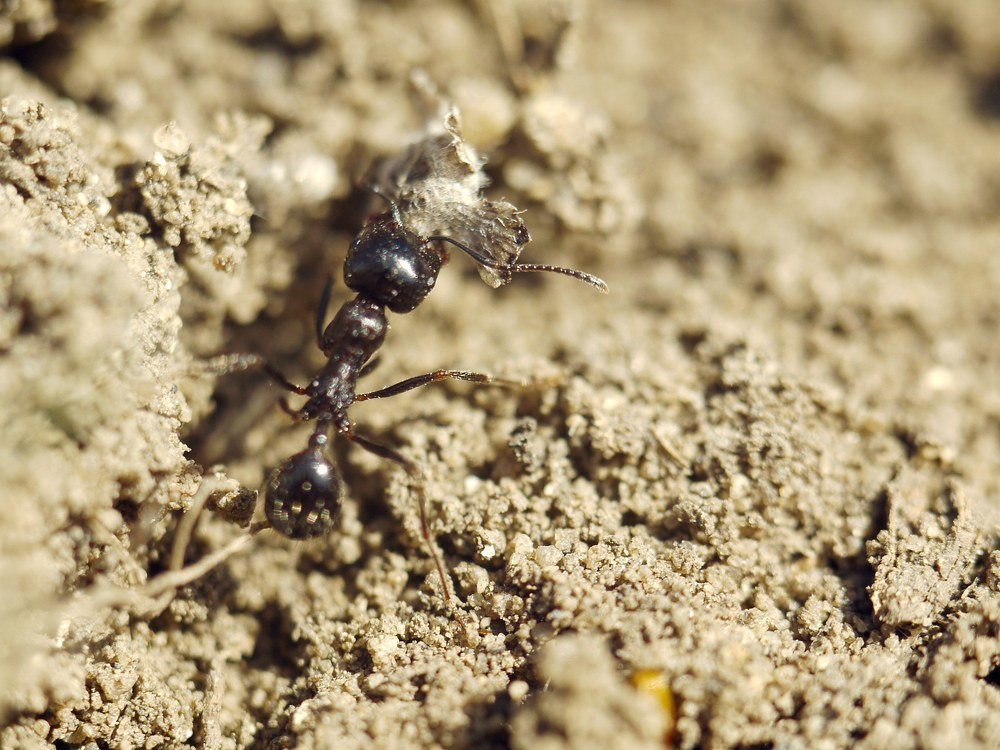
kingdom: Animalia
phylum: Arthropoda
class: Insecta
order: Hymenoptera
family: Formicidae
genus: Messor
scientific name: Messor structor
